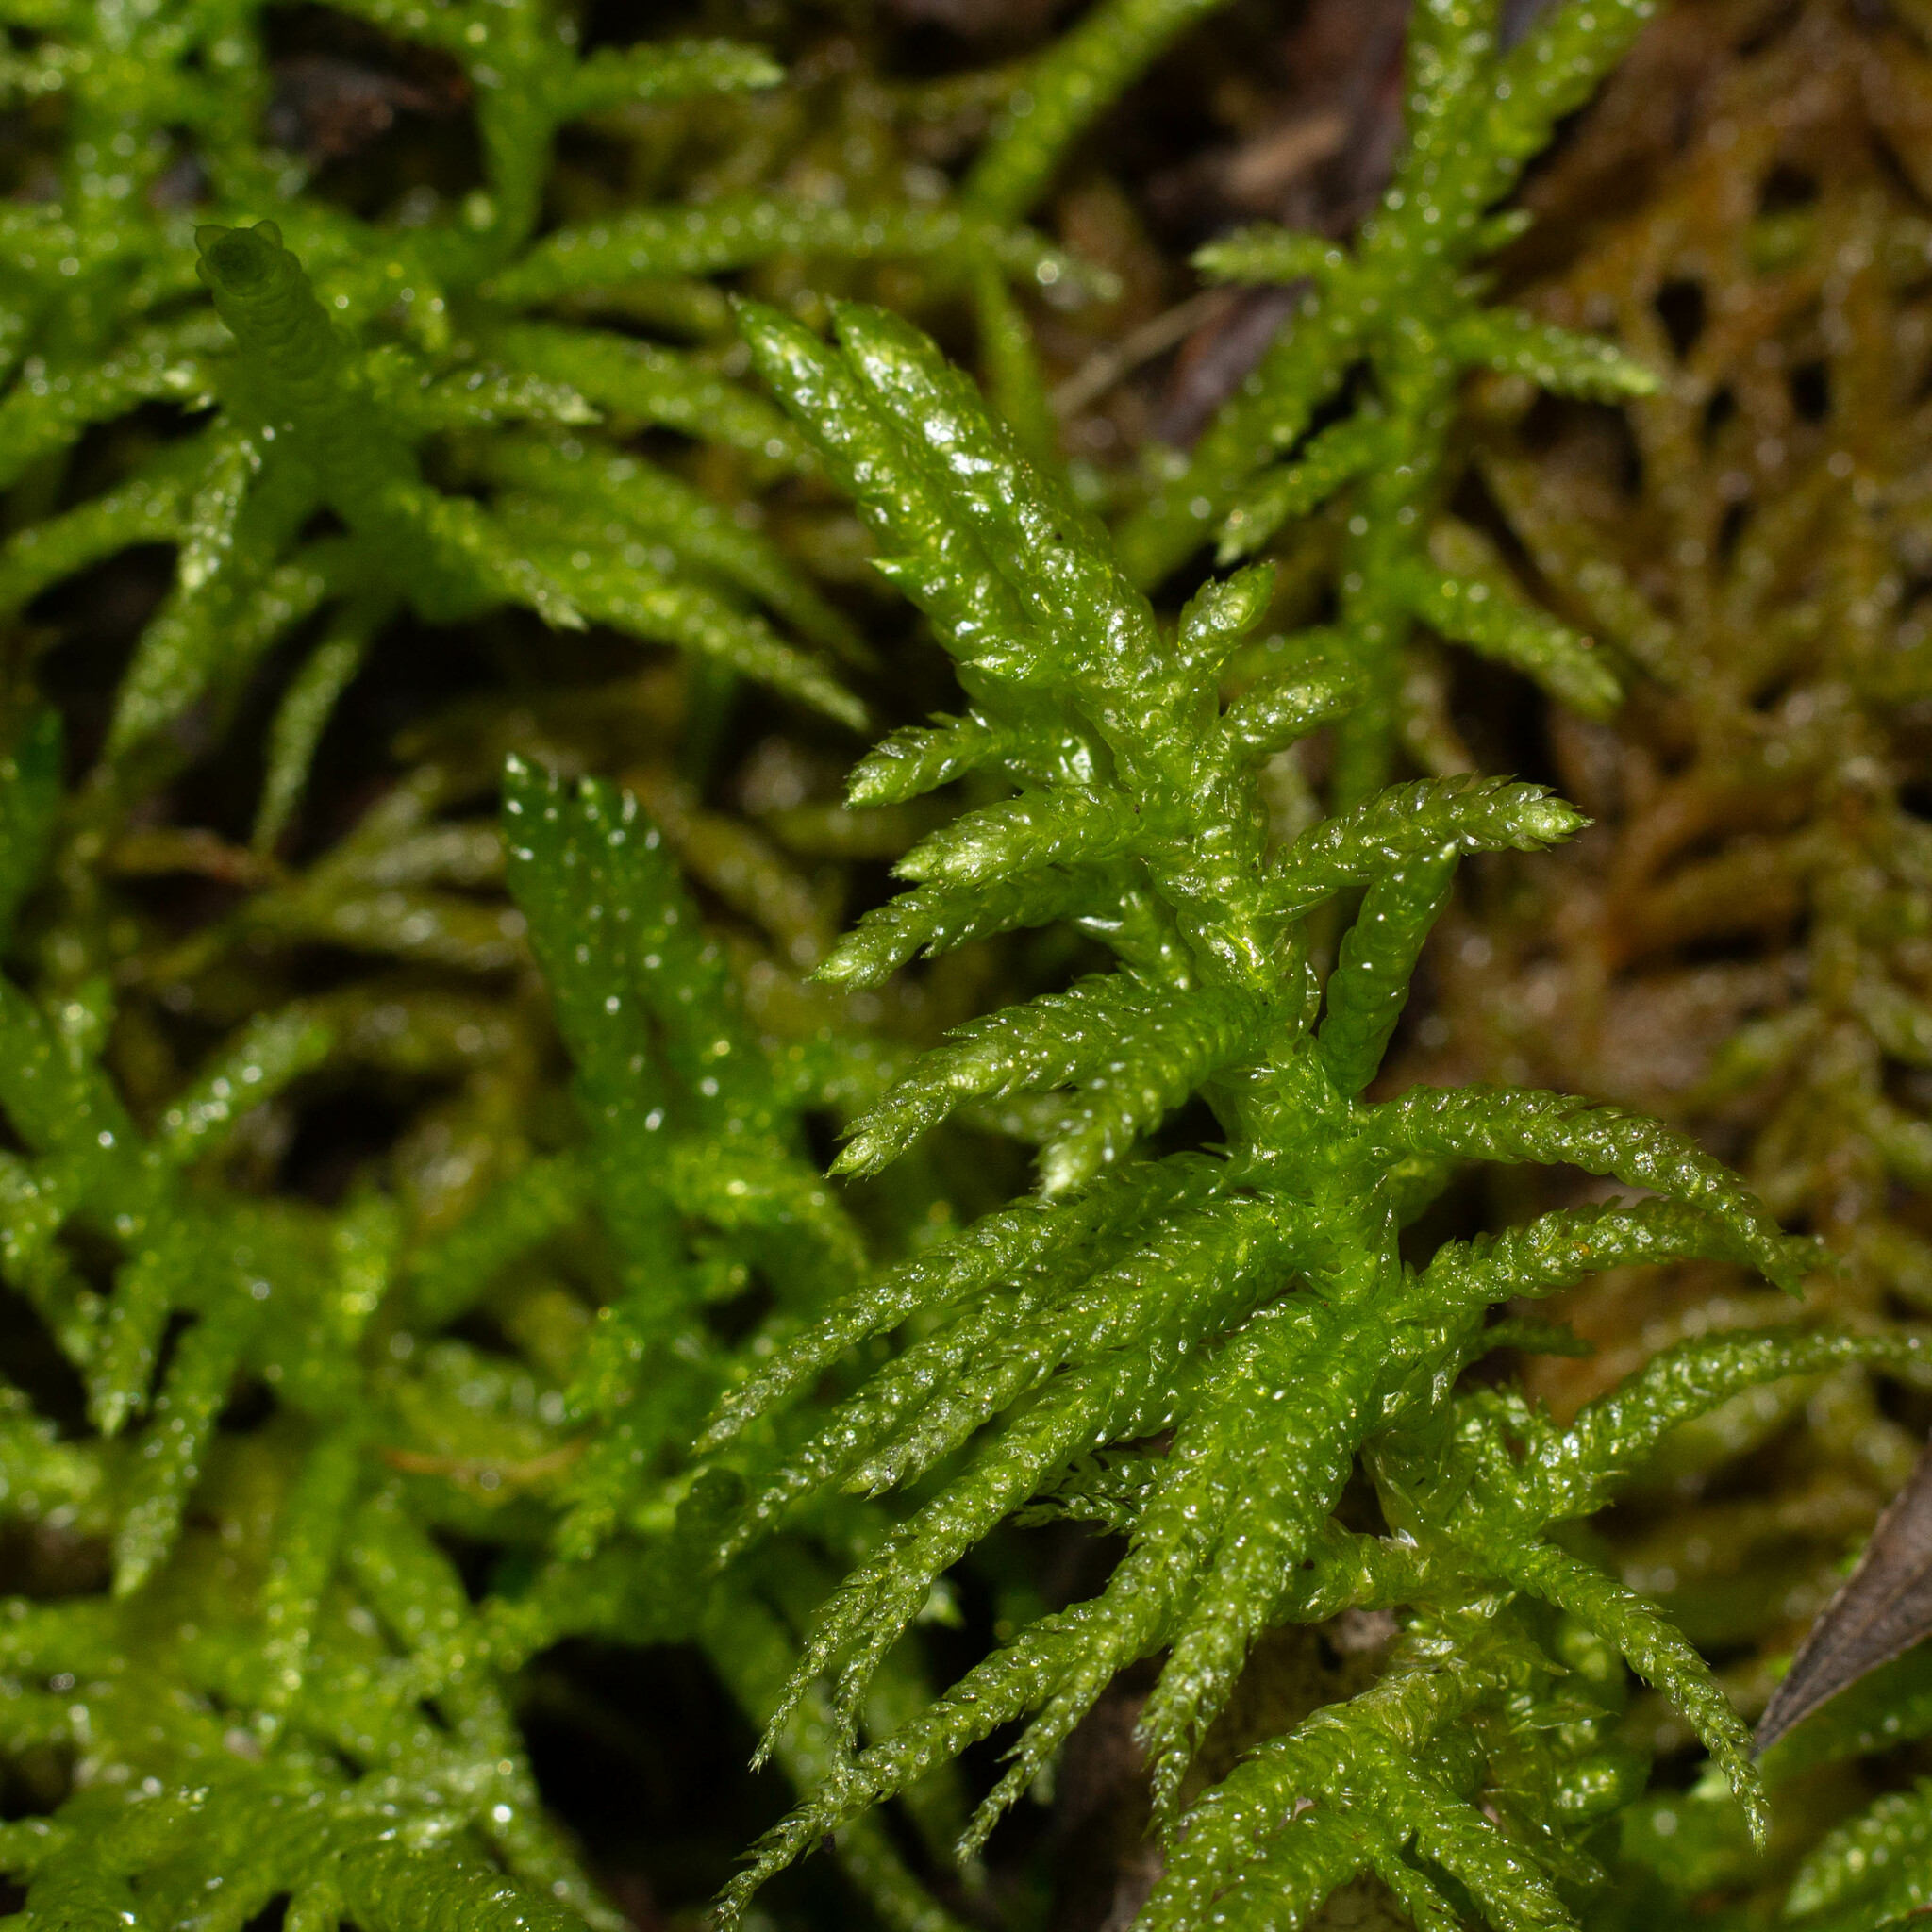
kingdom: Plantae
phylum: Bryophyta
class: Bryopsida
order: Hypnales
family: Brachytheciaceae
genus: Pseudoscleropodium
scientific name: Pseudoscleropodium purum
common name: Neat feather-moss
